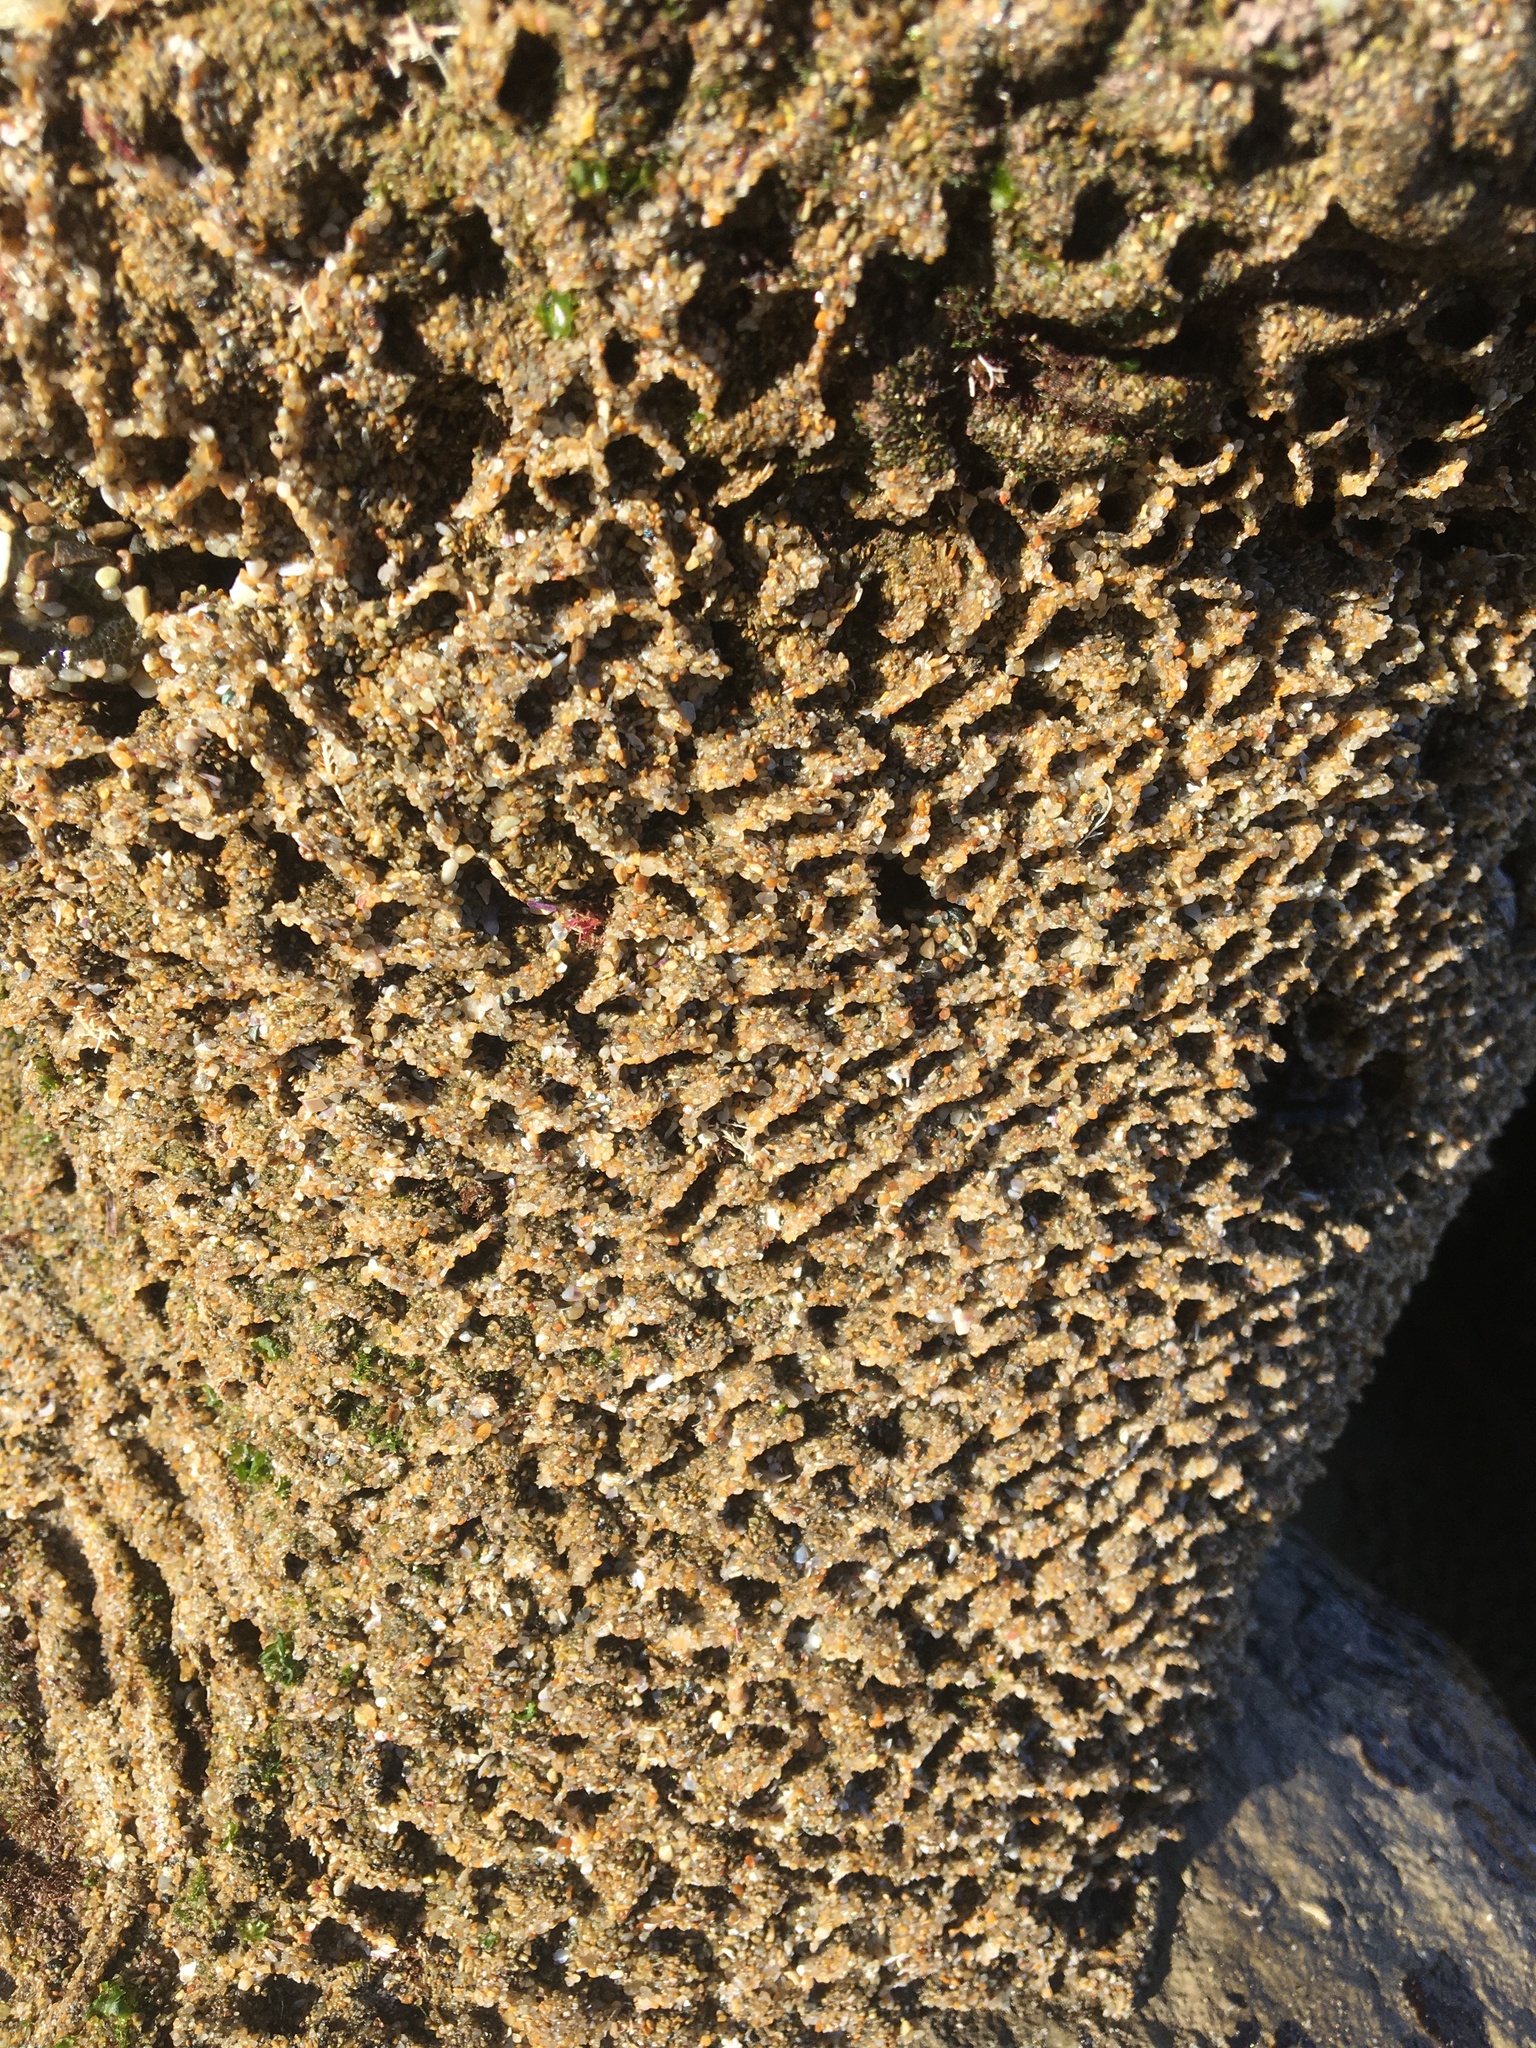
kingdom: Animalia
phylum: Annelida
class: Polychaeta
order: Sabellida
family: Sabellariidae
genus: Phragmatopoma
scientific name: Phragmatopoma californica
